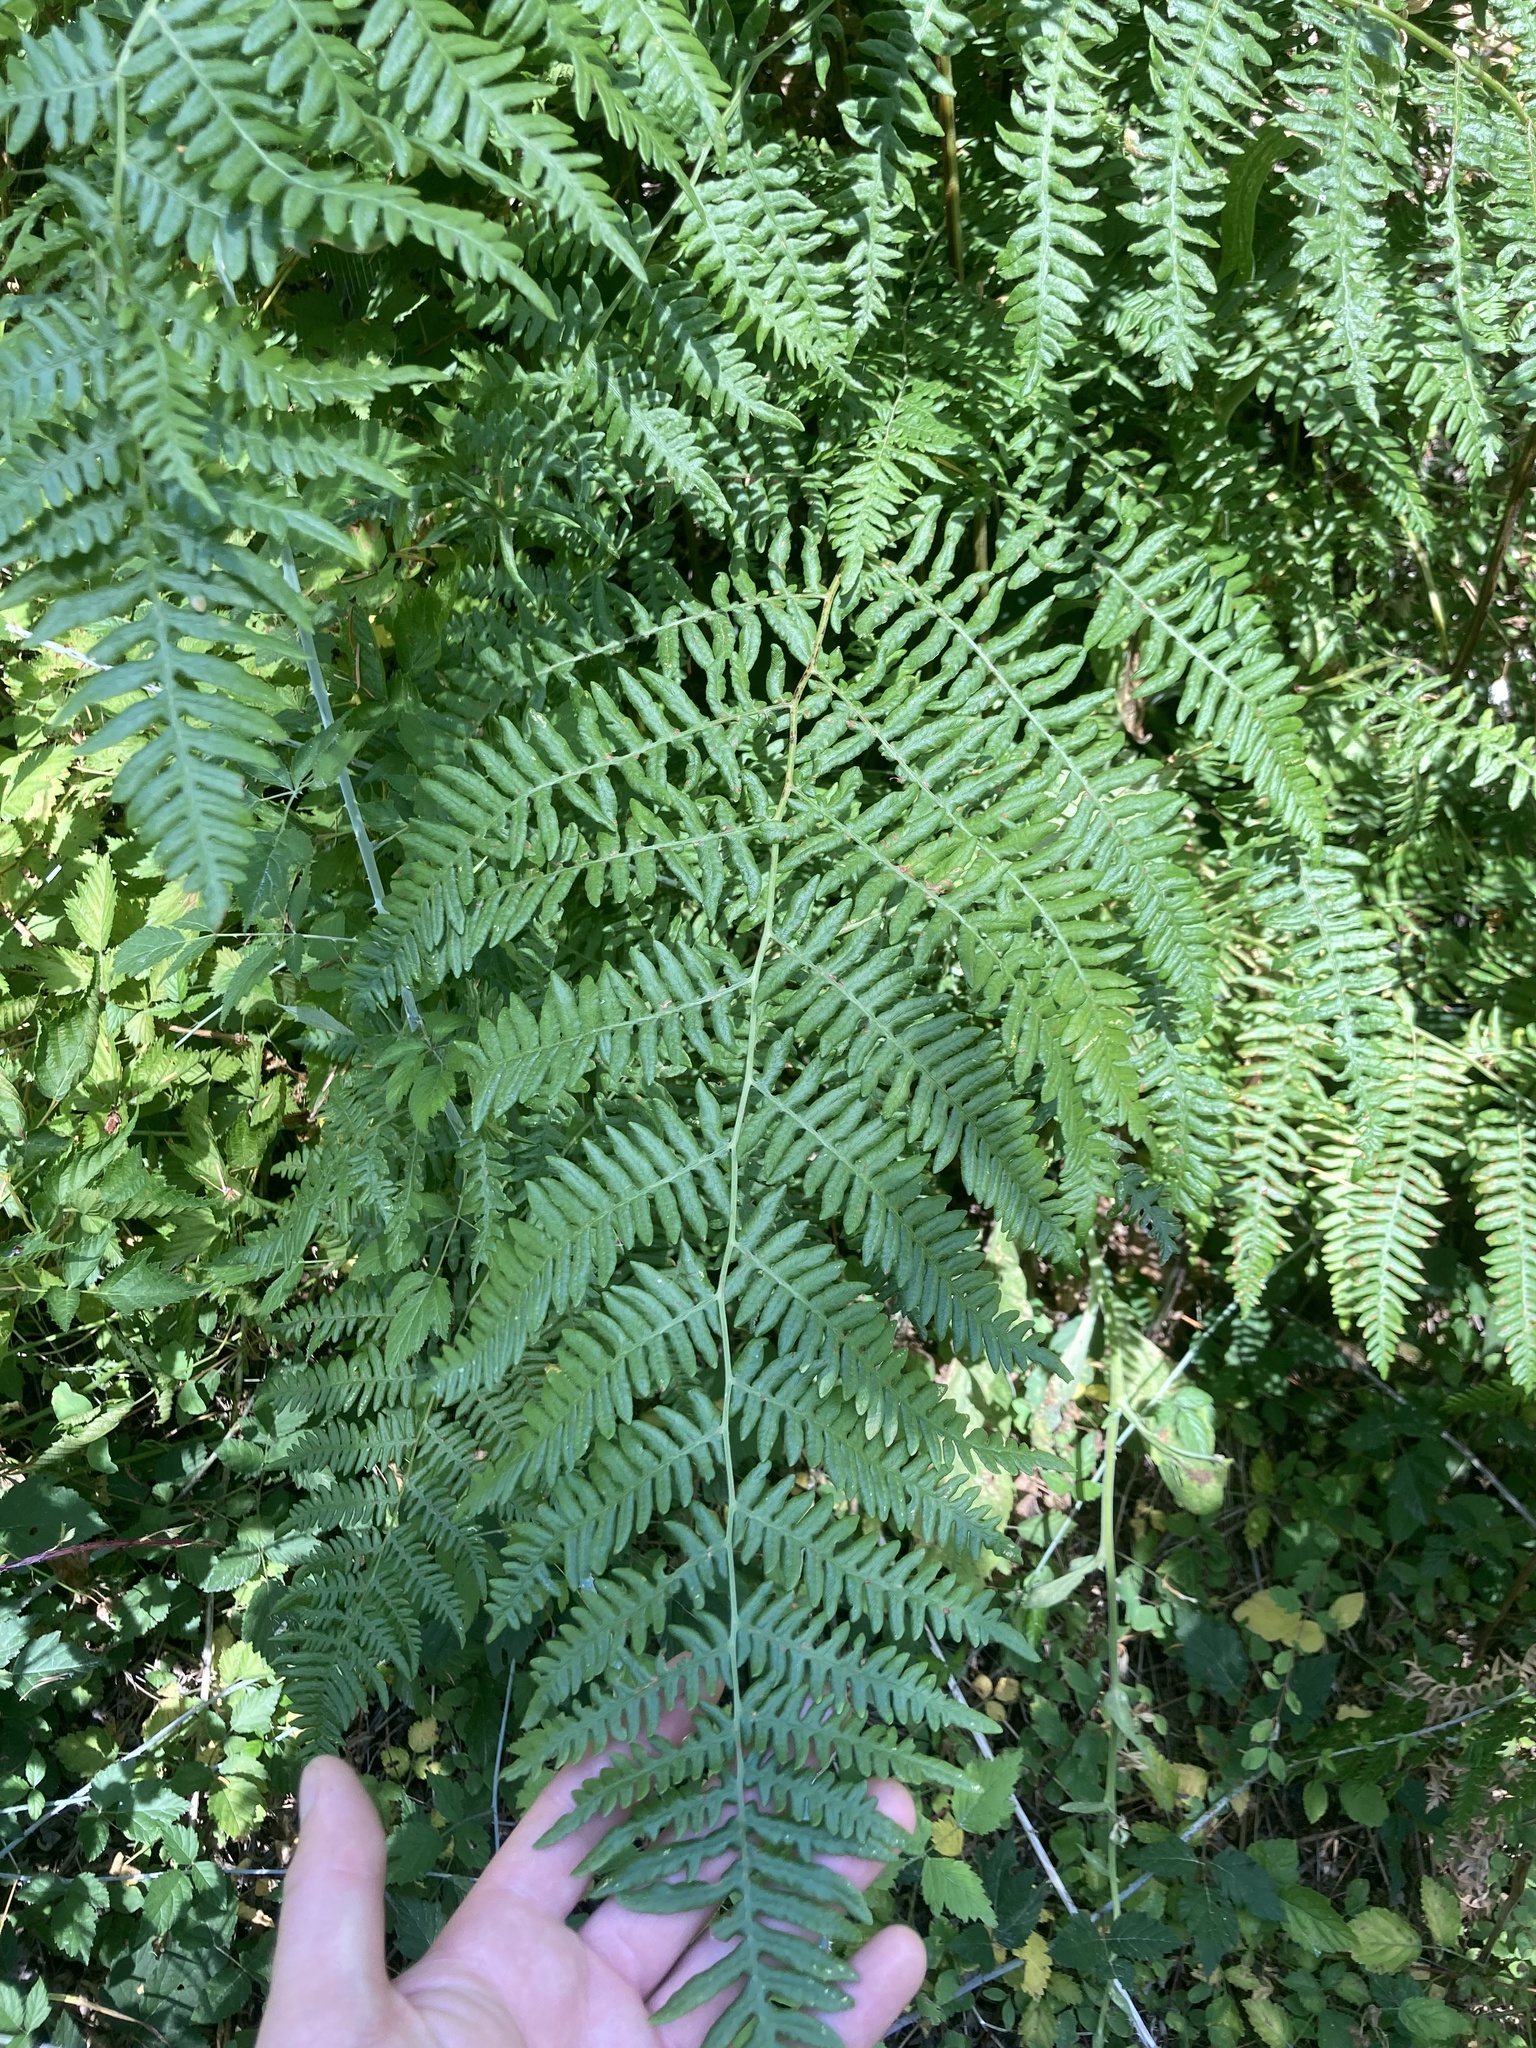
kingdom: Plantae
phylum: Tracheophyta
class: Polypodiopsida
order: Polypodiales
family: Dennstaedtiaceae
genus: Pteridium
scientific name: Pteridium aquilinum
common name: Bracken
